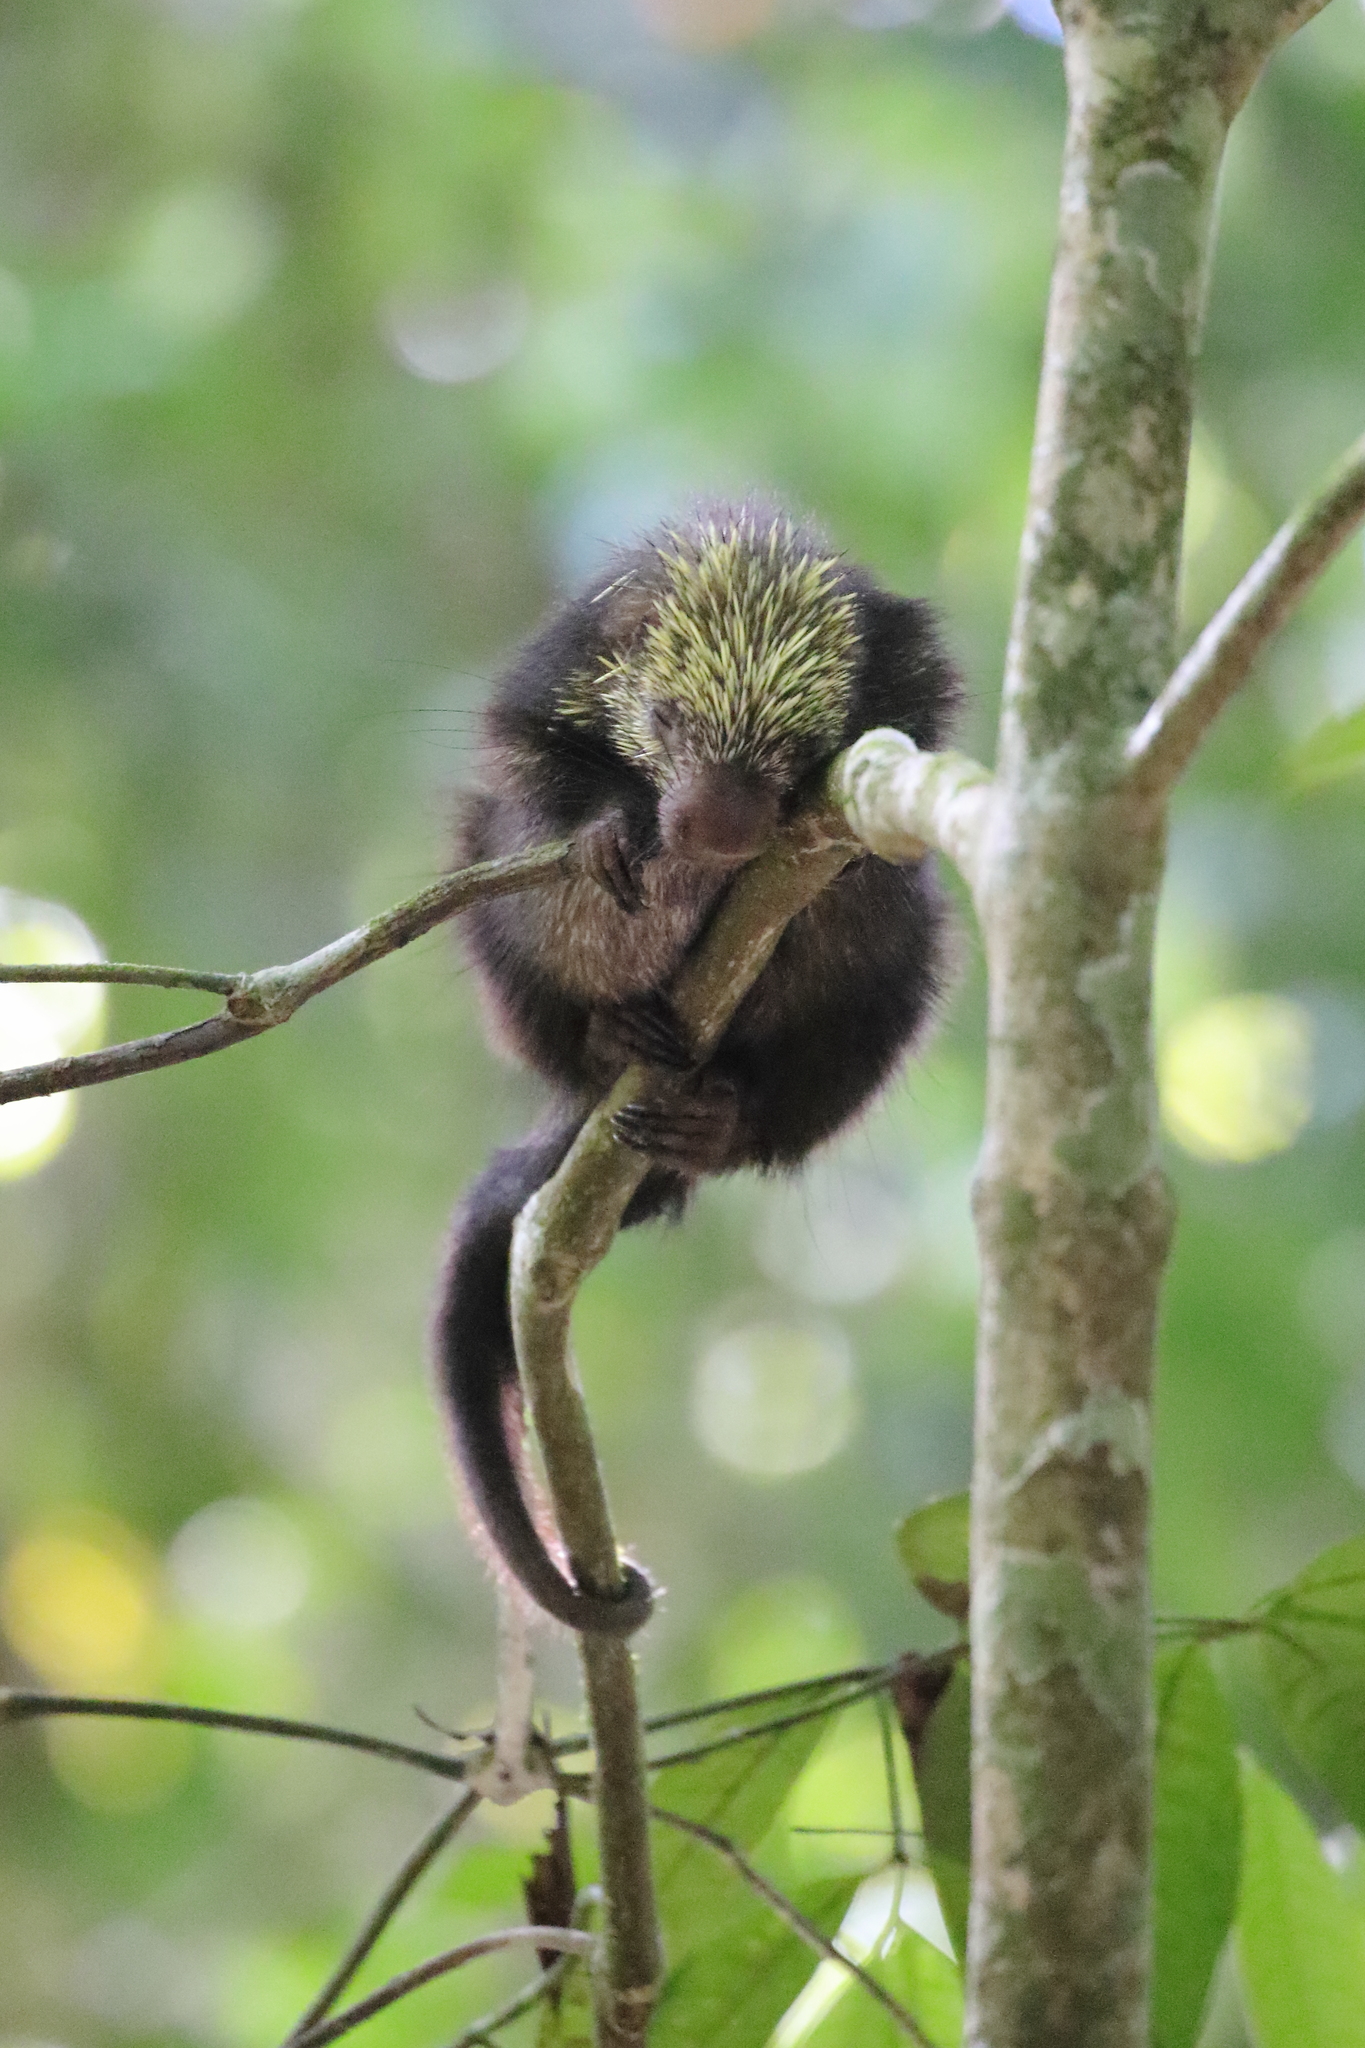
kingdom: Animalia
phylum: Chordata
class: Mammalia
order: Rodentia
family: Erethizontidae
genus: Sphiggurus
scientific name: Sphiggurus mexicanus
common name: Mexican hairy dwarf porcupine
